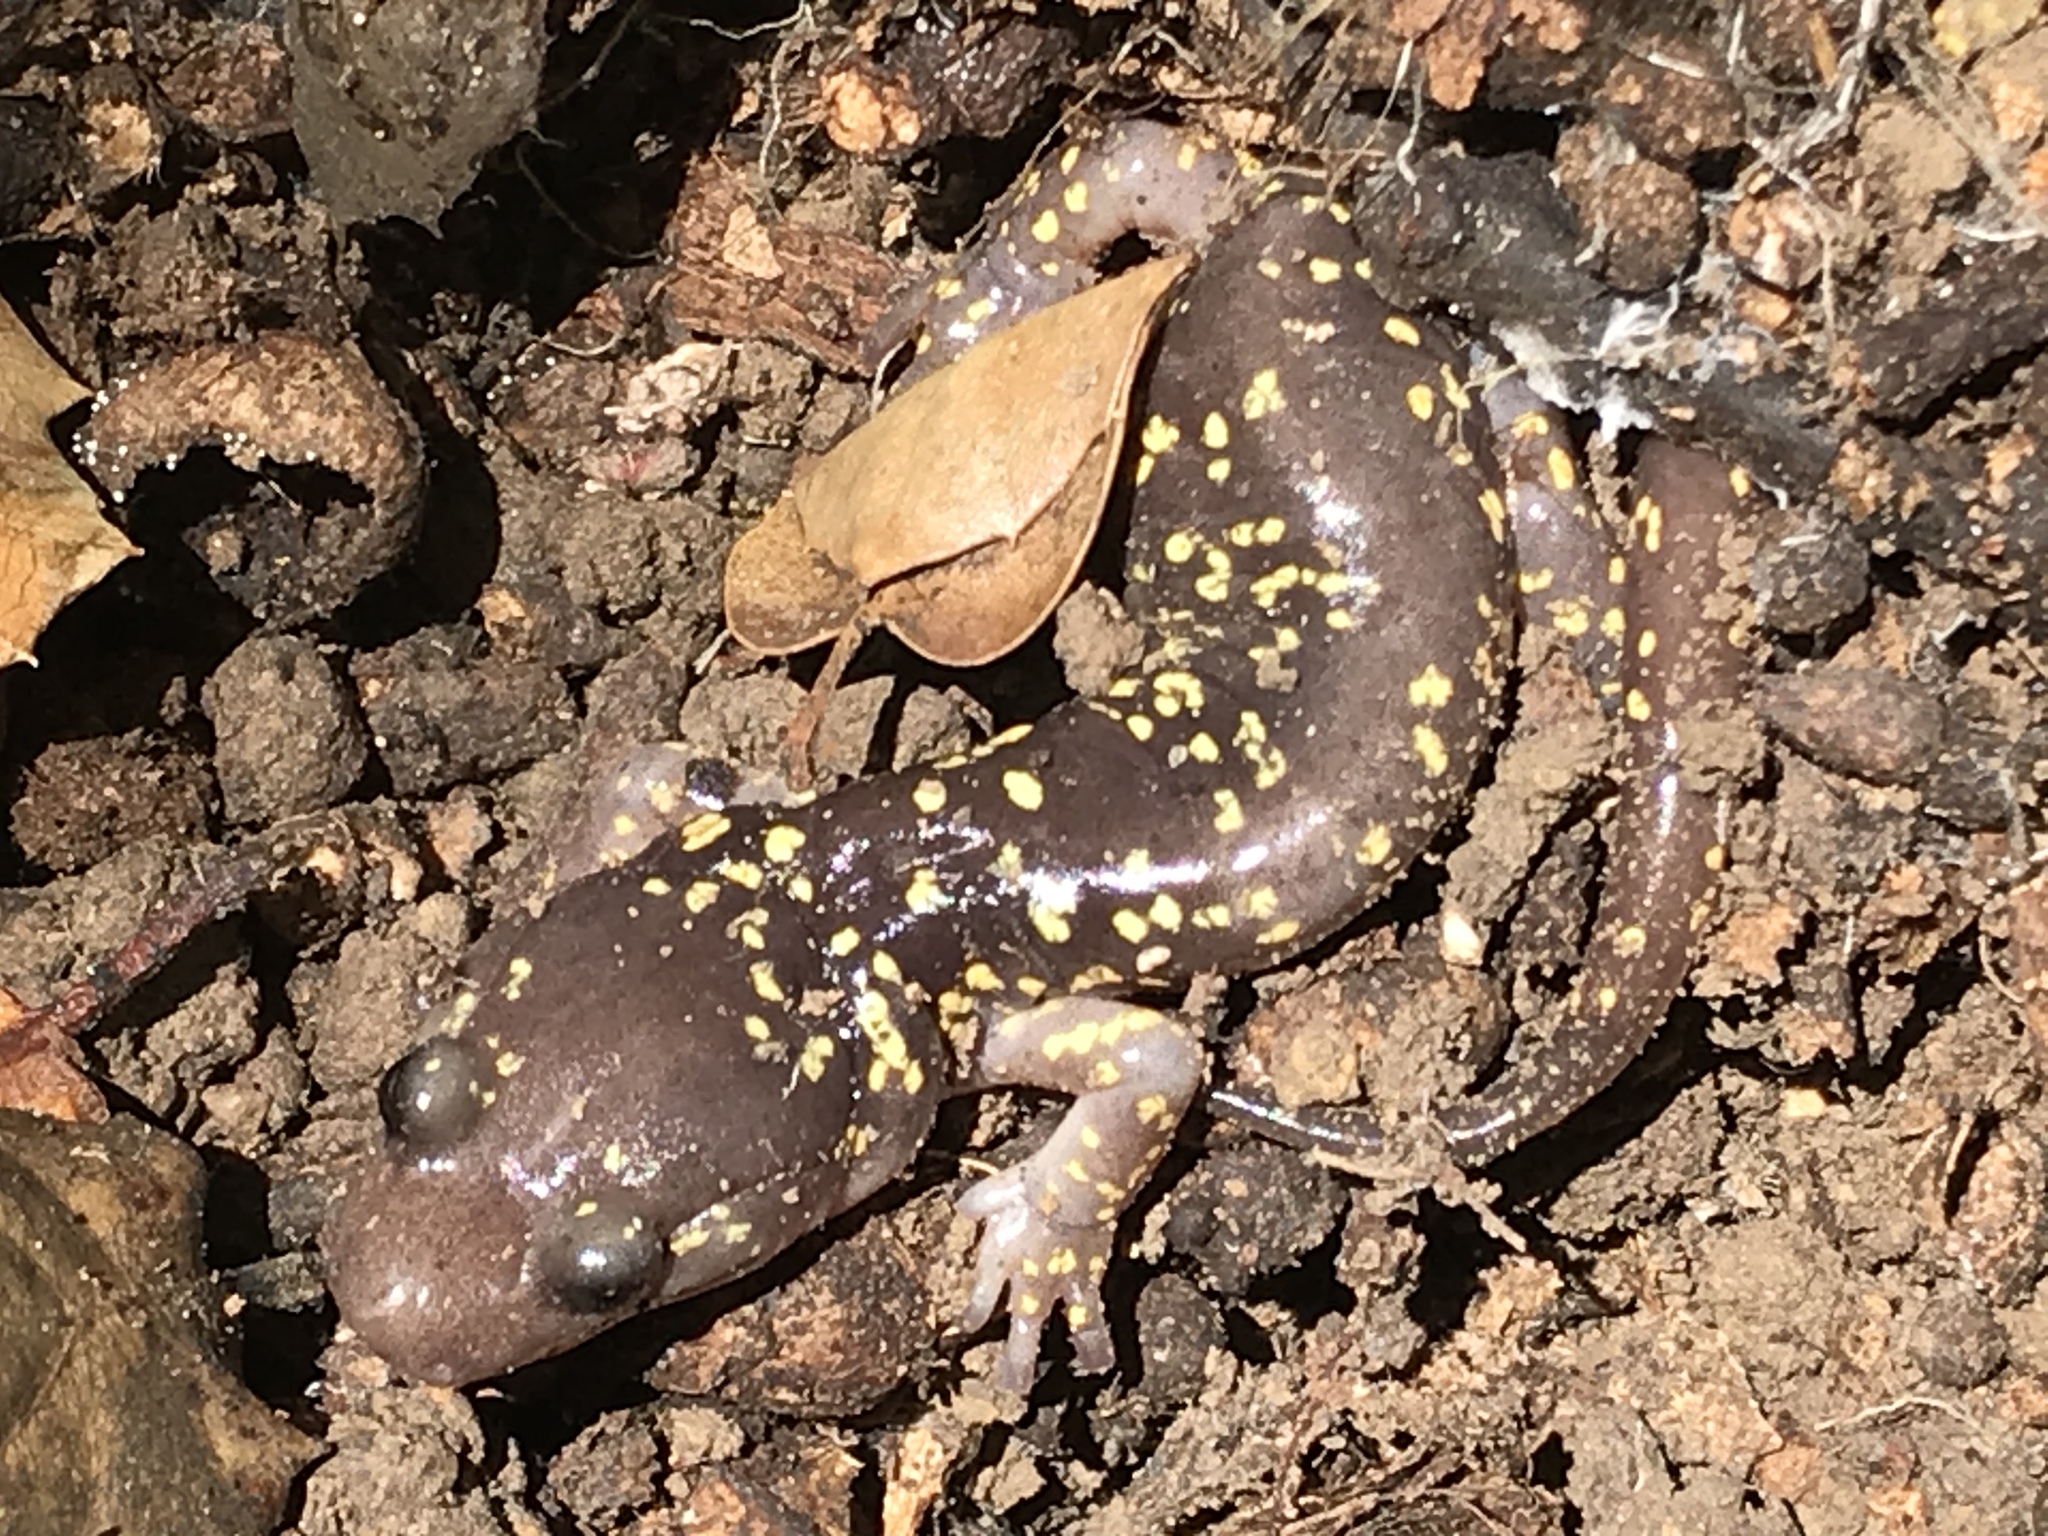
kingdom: Animalia
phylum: Chordata
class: Amphibia
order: Caudata
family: Plethodontidae
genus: Aneides
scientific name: Aneides lugubris
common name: Arboreal salamander
